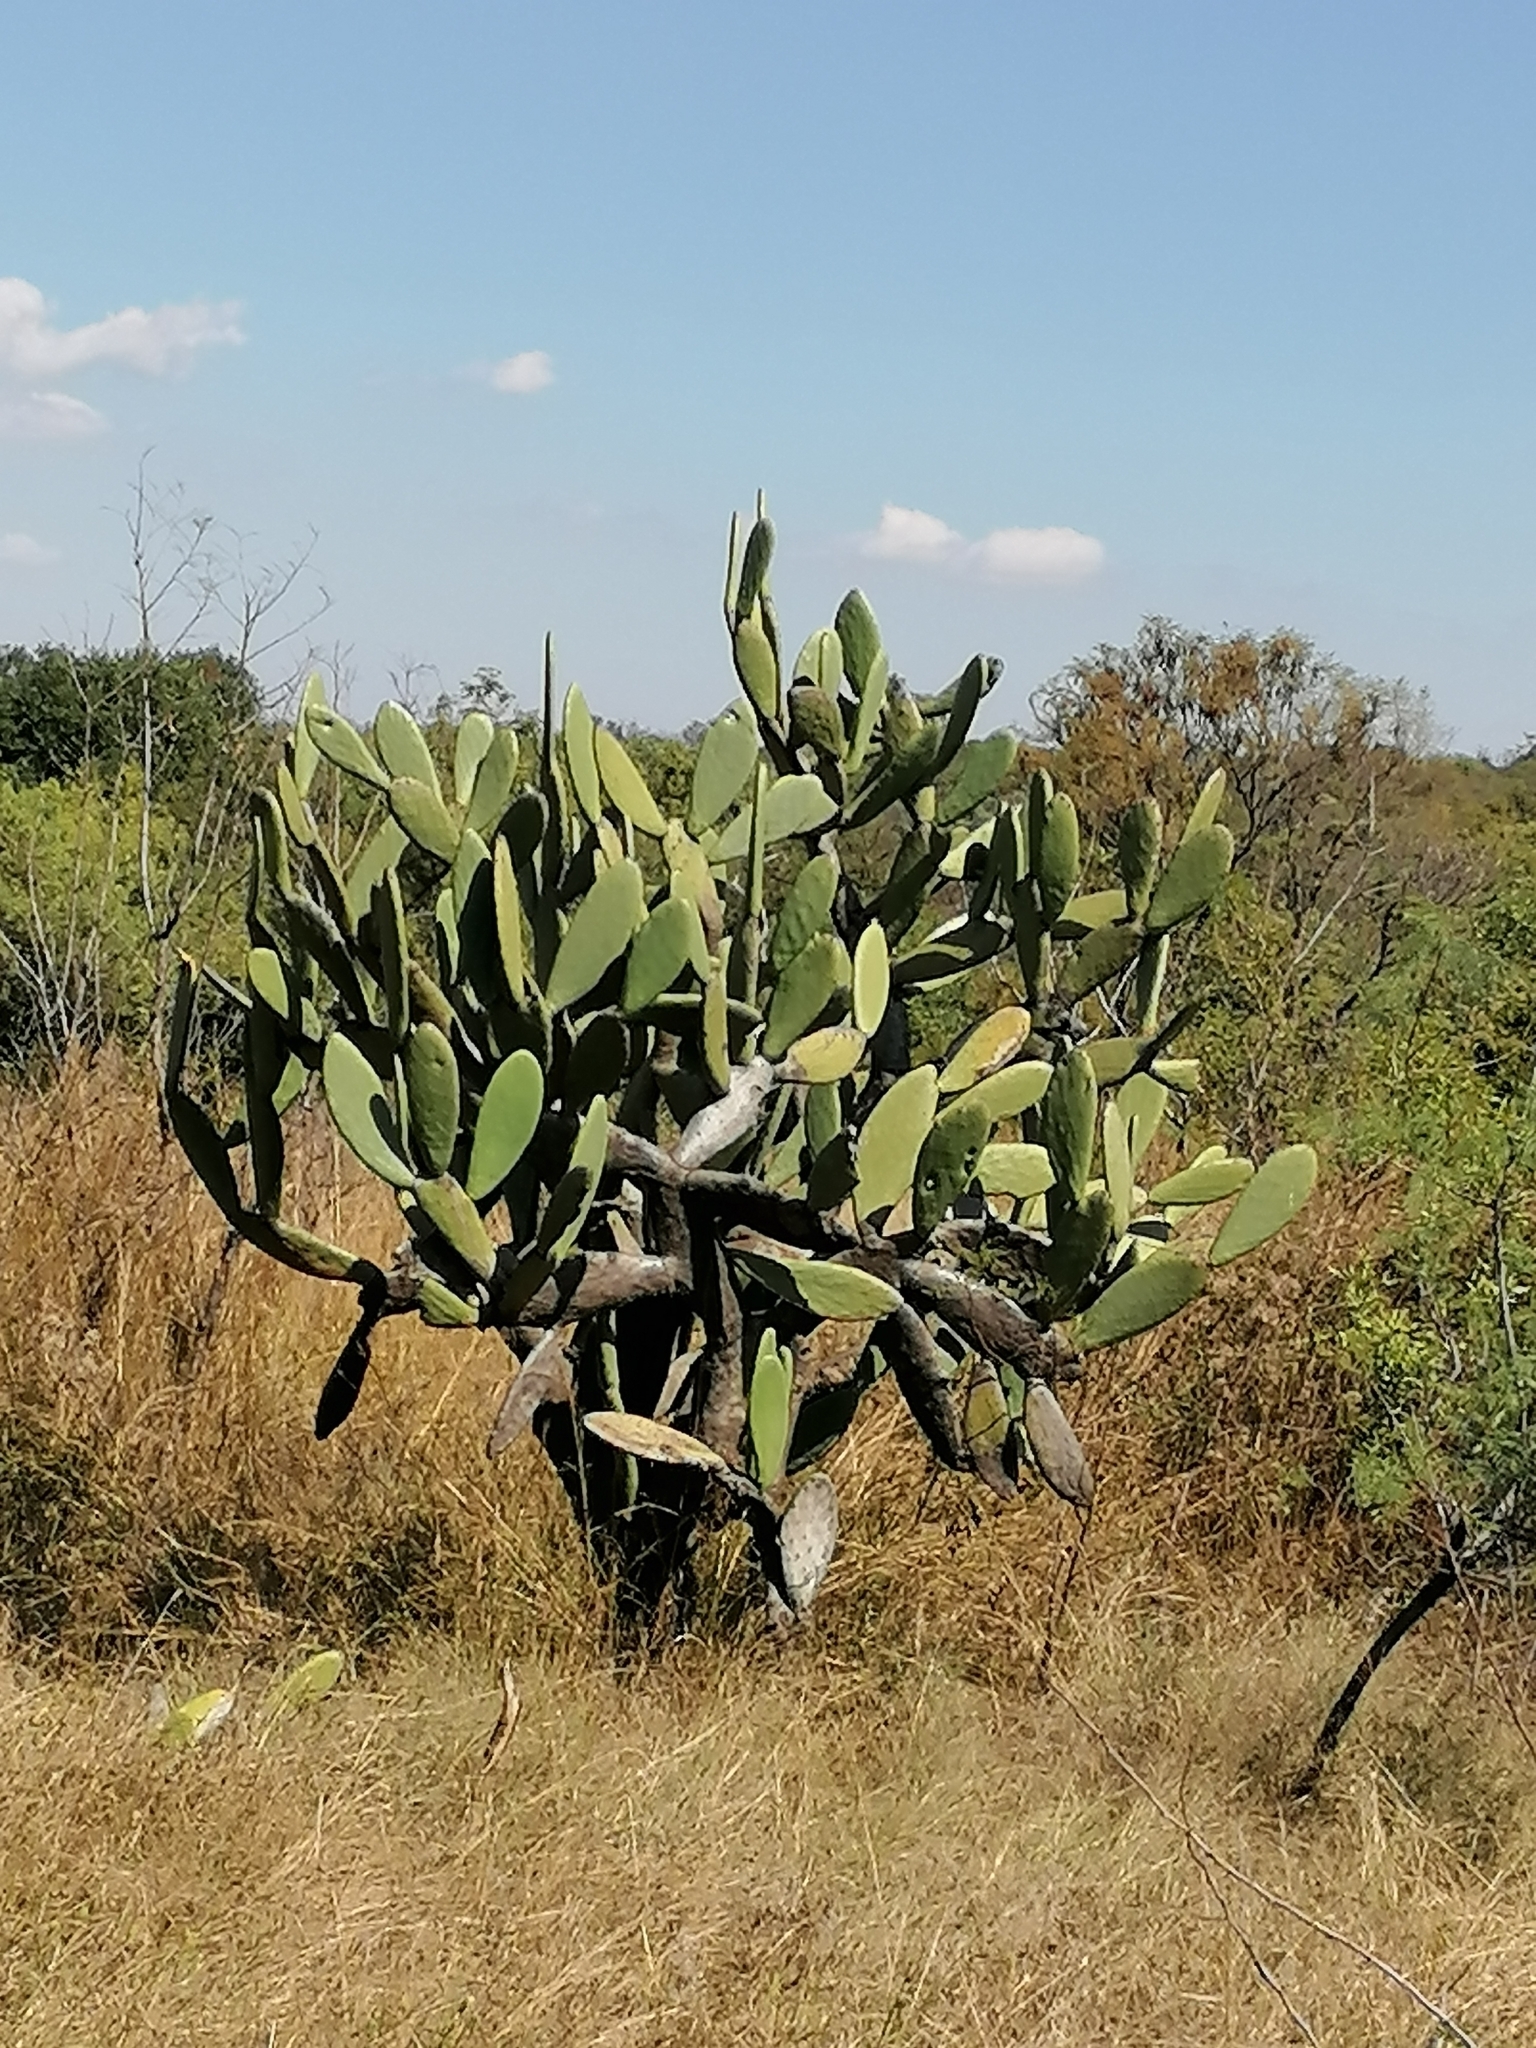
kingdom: Plantae
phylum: Tracheophyta
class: Magnoliopsida
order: Caryophyllales
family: Cactaceae
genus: Opuntia
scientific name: Opuntia ficus-indica
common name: Barbary fig
